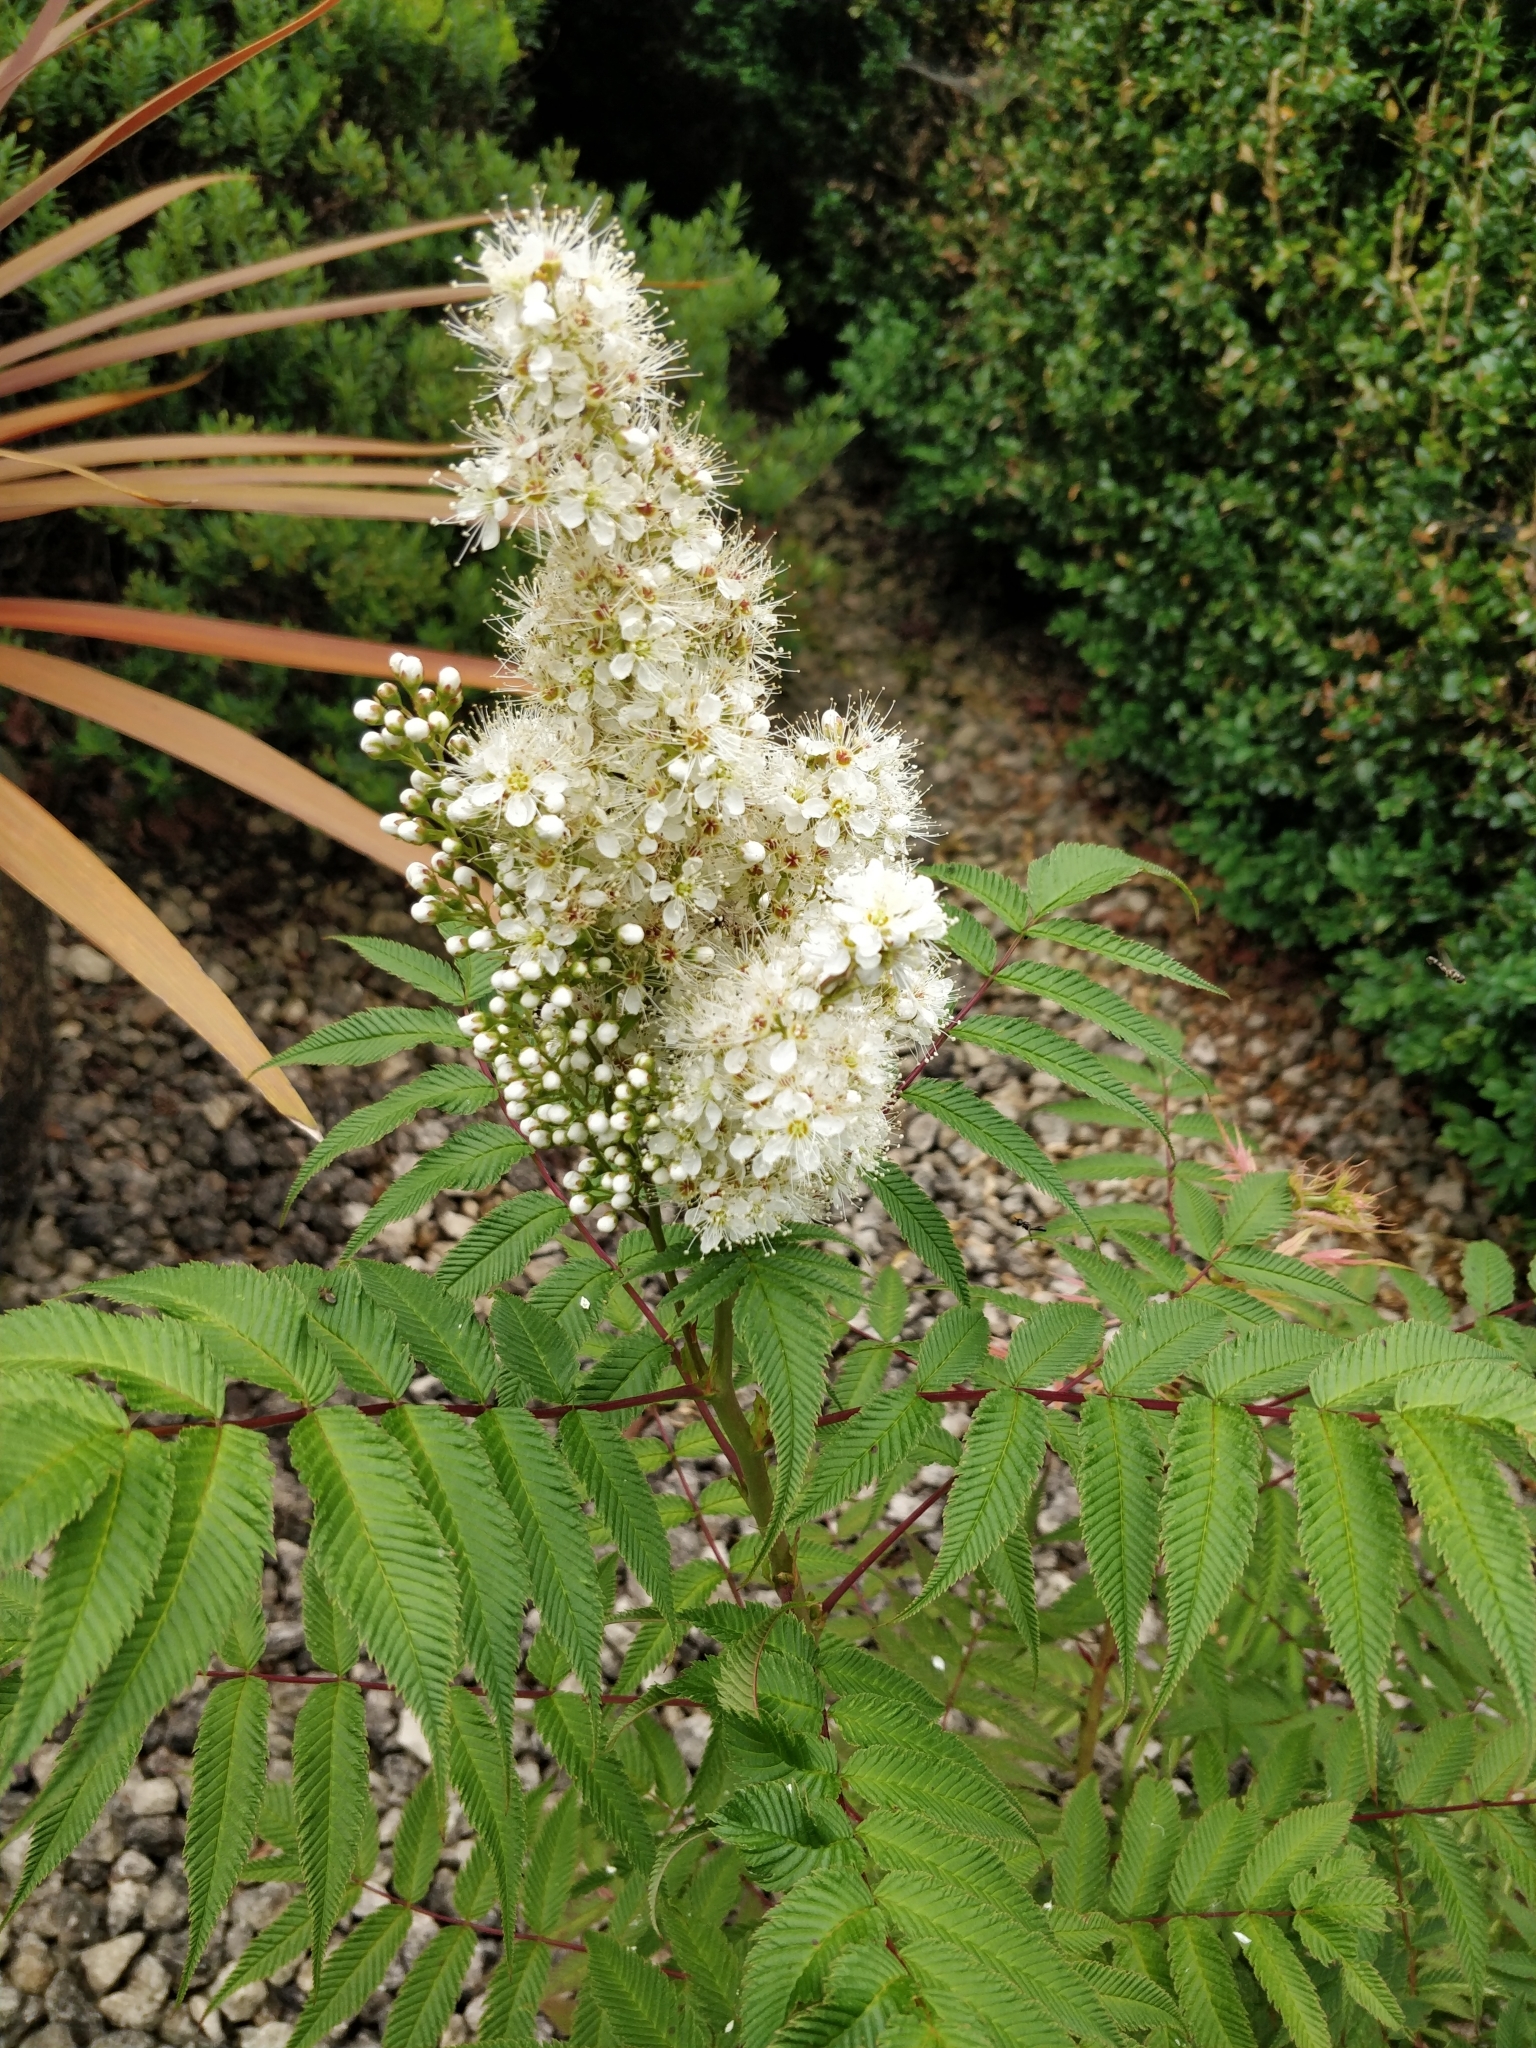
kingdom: Plantae
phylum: Tracheophyta
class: Magnoliopsida
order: Rosales
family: Rosaceae
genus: Sorbaria
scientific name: Sorbaria sorbifolia
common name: False spiraea
